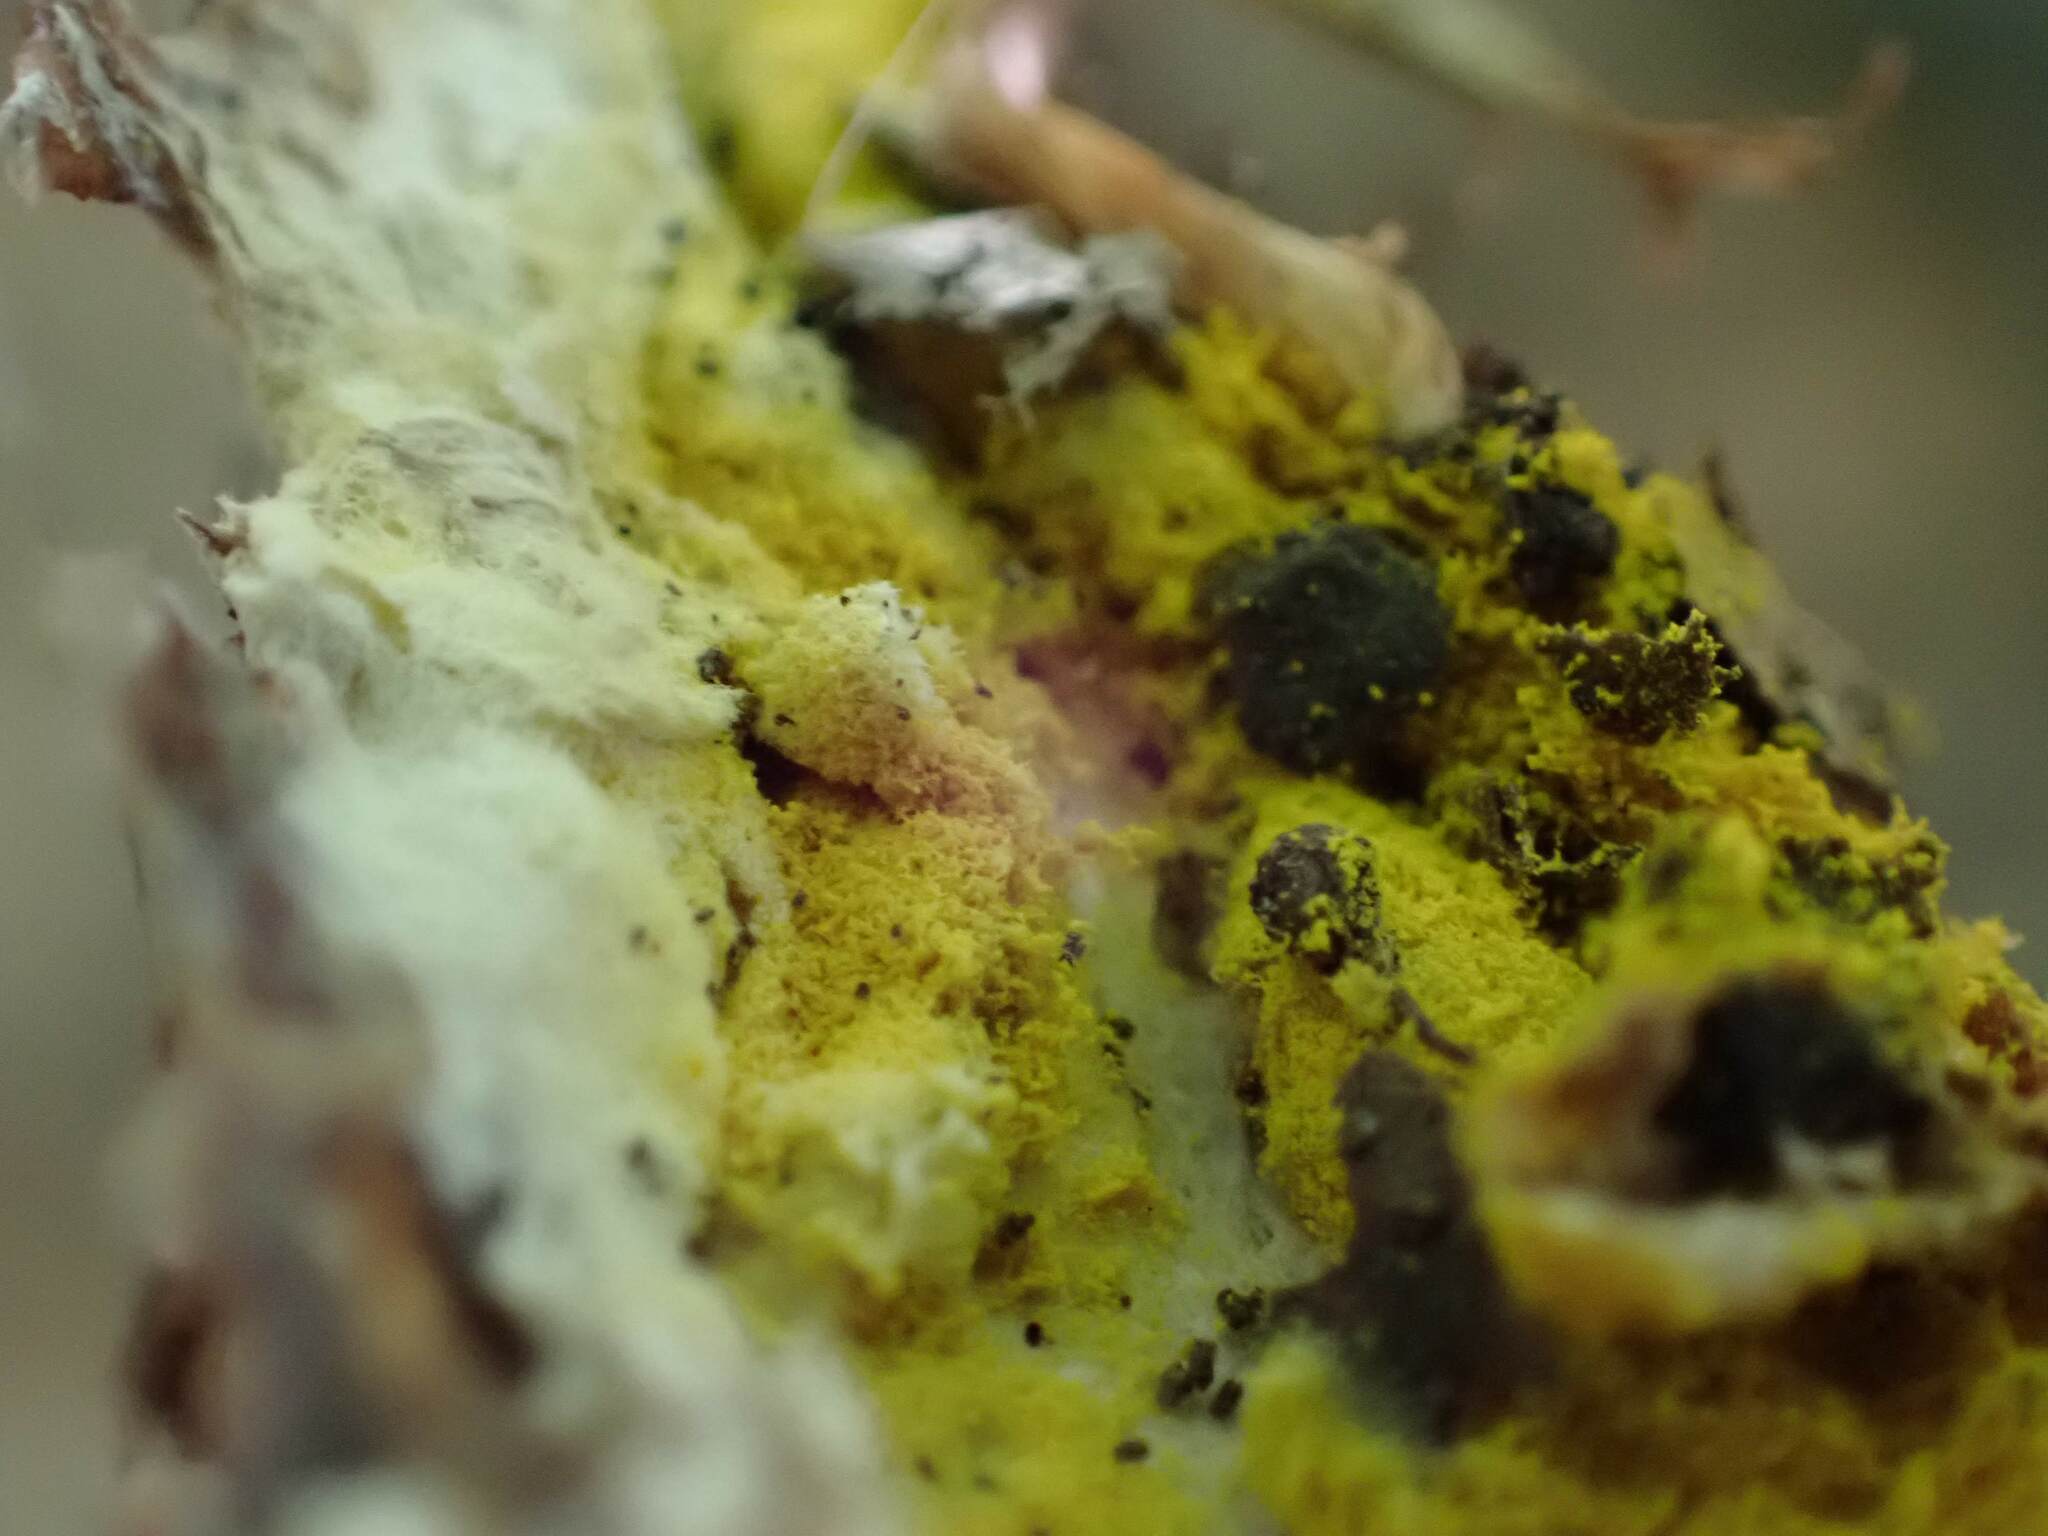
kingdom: Fungi
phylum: Ascomycota
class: Sordariomycetes
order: Hypocreales
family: Hypocreaceae
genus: Hypomyces
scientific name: Hypomyces chrysospermus
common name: Bolete mould
